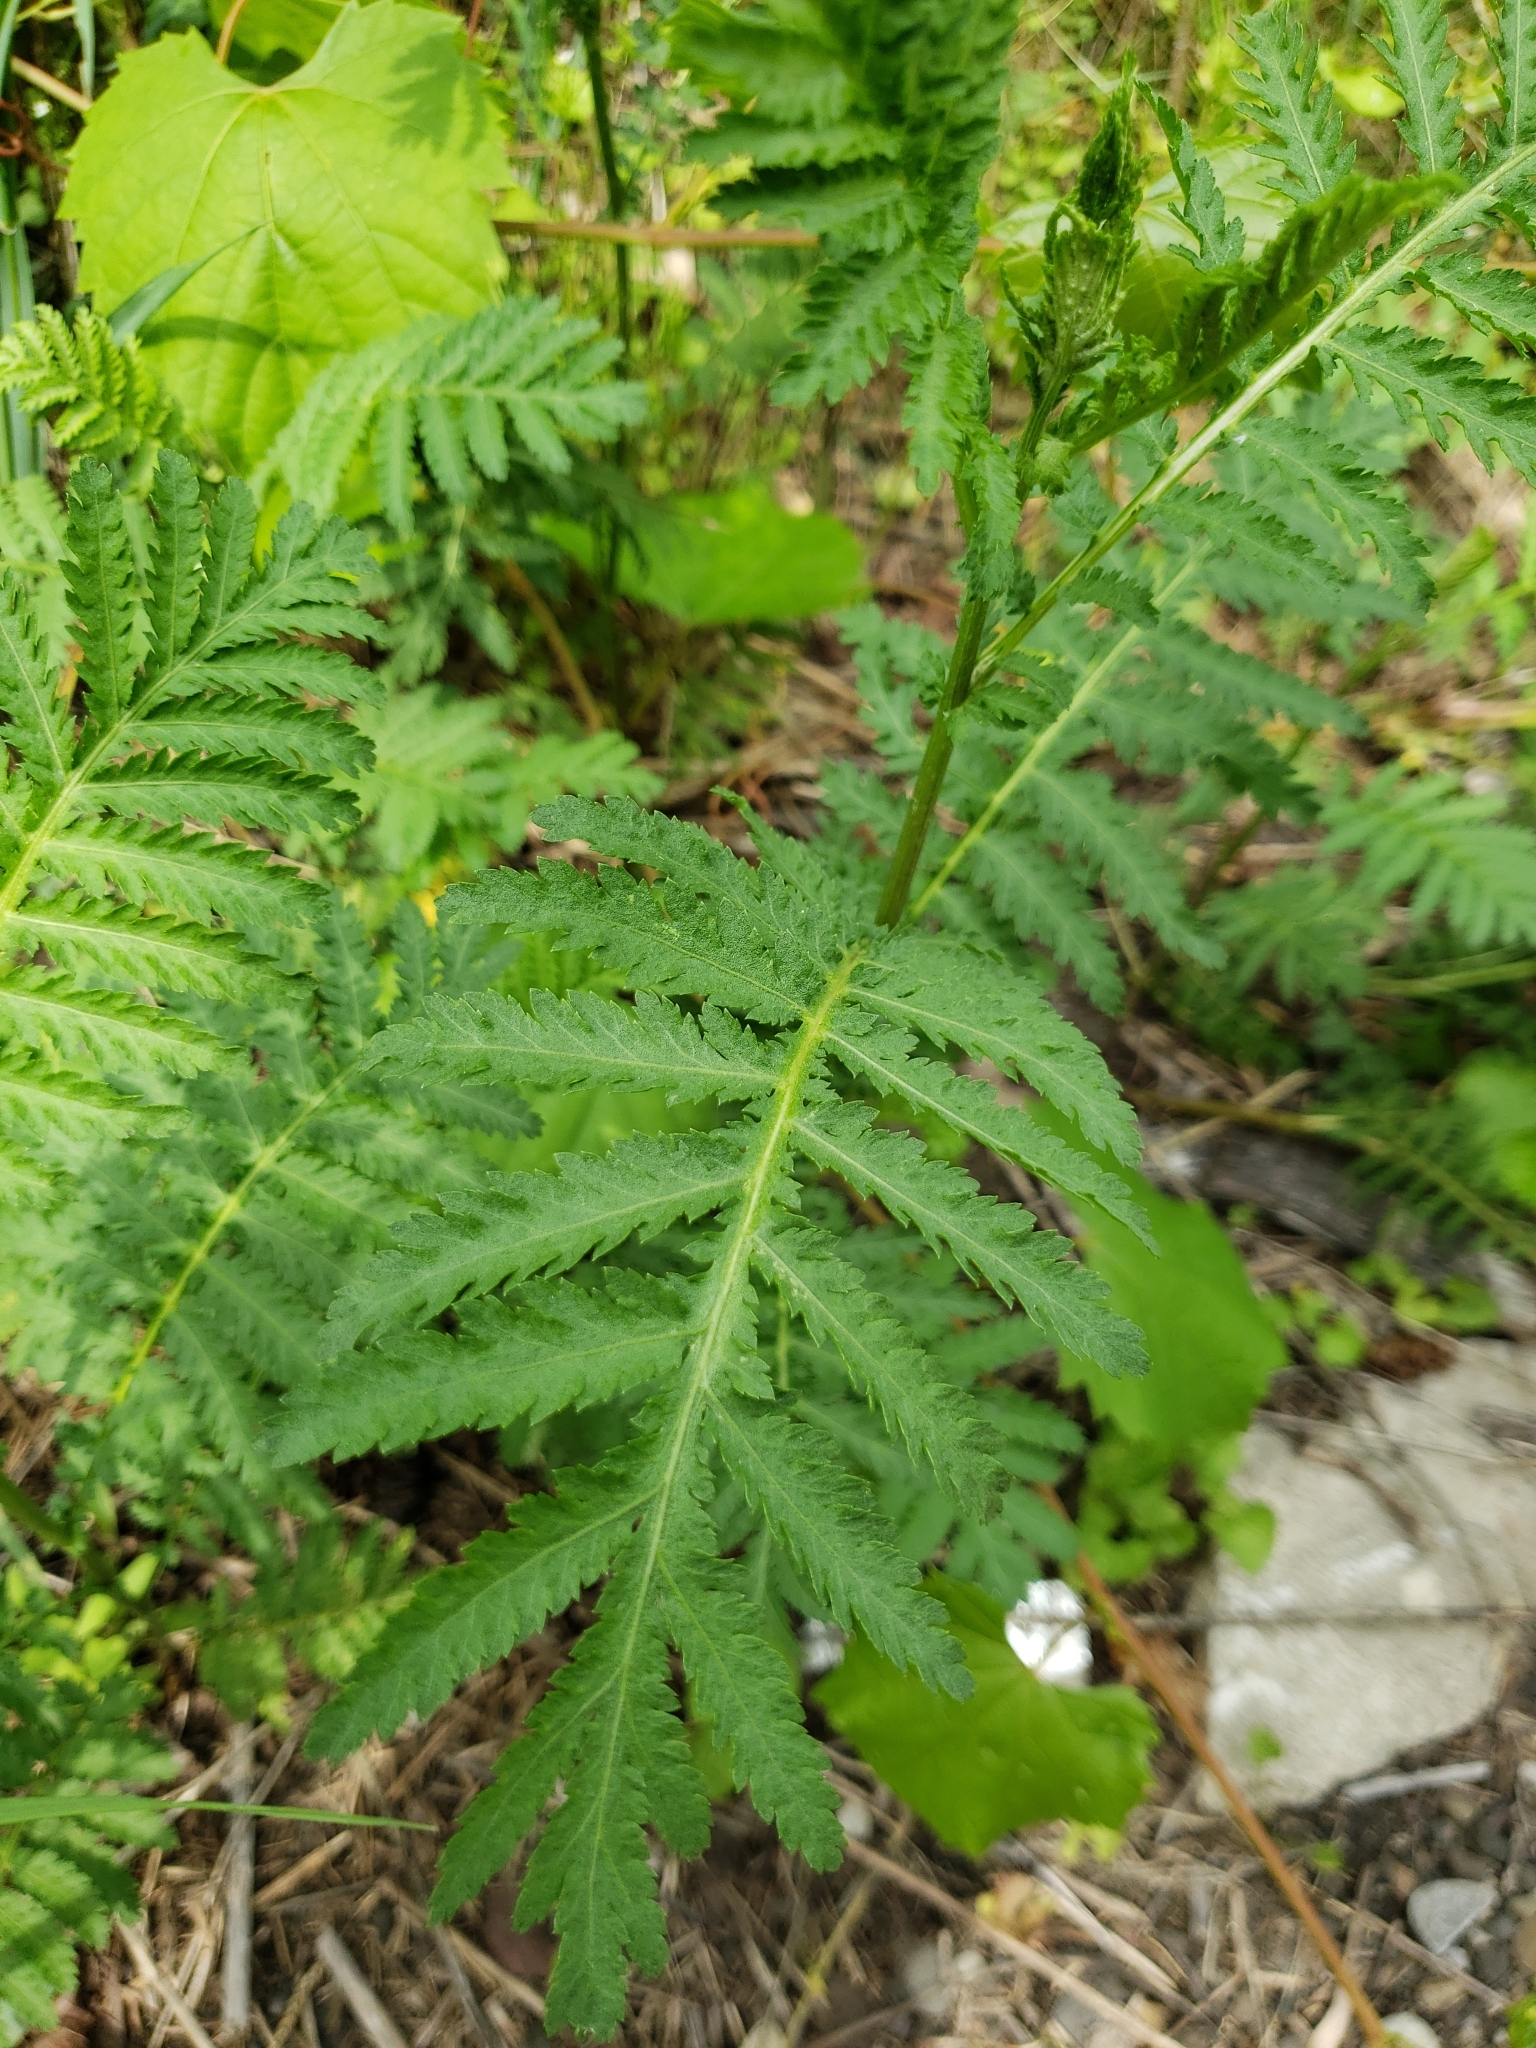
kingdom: Plantae
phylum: Tracheophyta
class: Magnoliopsida
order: Asterales
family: Asteraceae
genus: Tanacetum
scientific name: Tanacetum vulgare
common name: Common tansy
